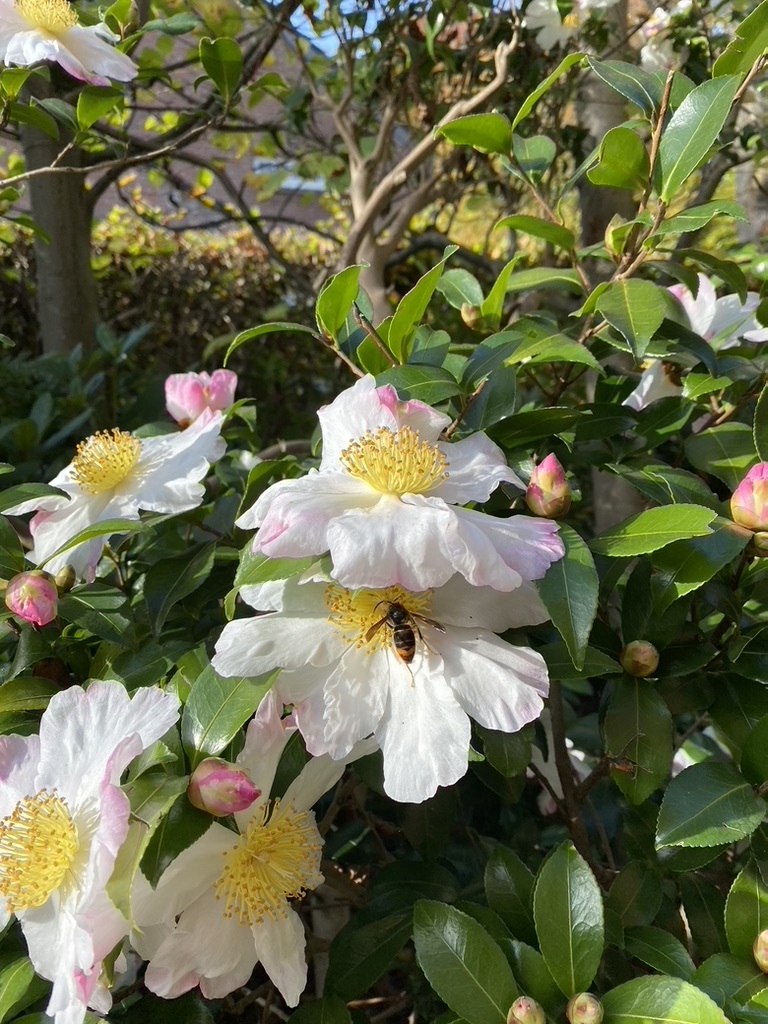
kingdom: Animalia
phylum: Arthropoda
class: Insecta
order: Hymenoptera
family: Vespidae
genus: Vespa
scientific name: Vespa velutina
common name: Asian hornet
